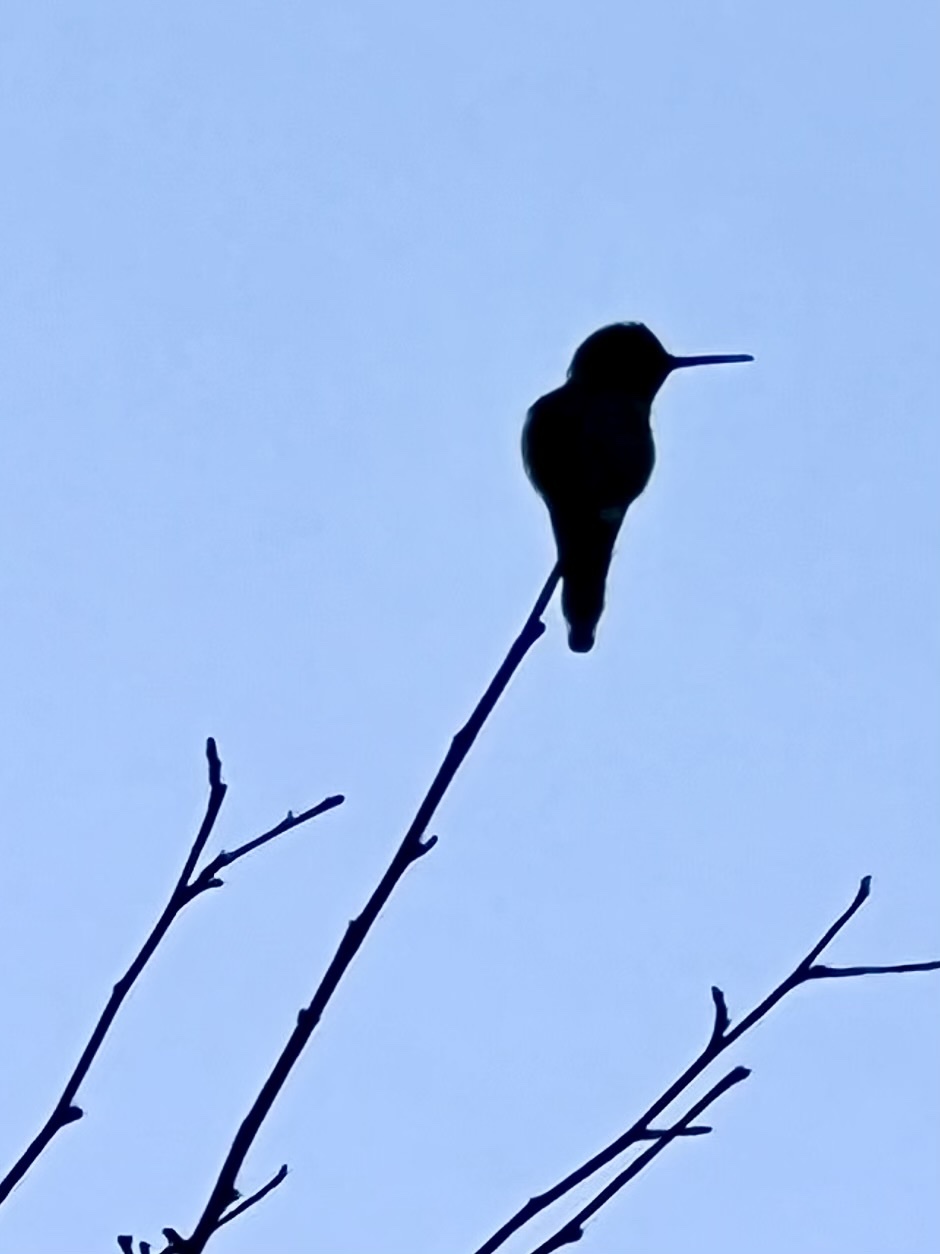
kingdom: Animalia
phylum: Chordata
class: Aves
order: Apodiformes
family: Trochilidae
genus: Calypte
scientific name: Calypte anna
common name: Anna's hummingbird
